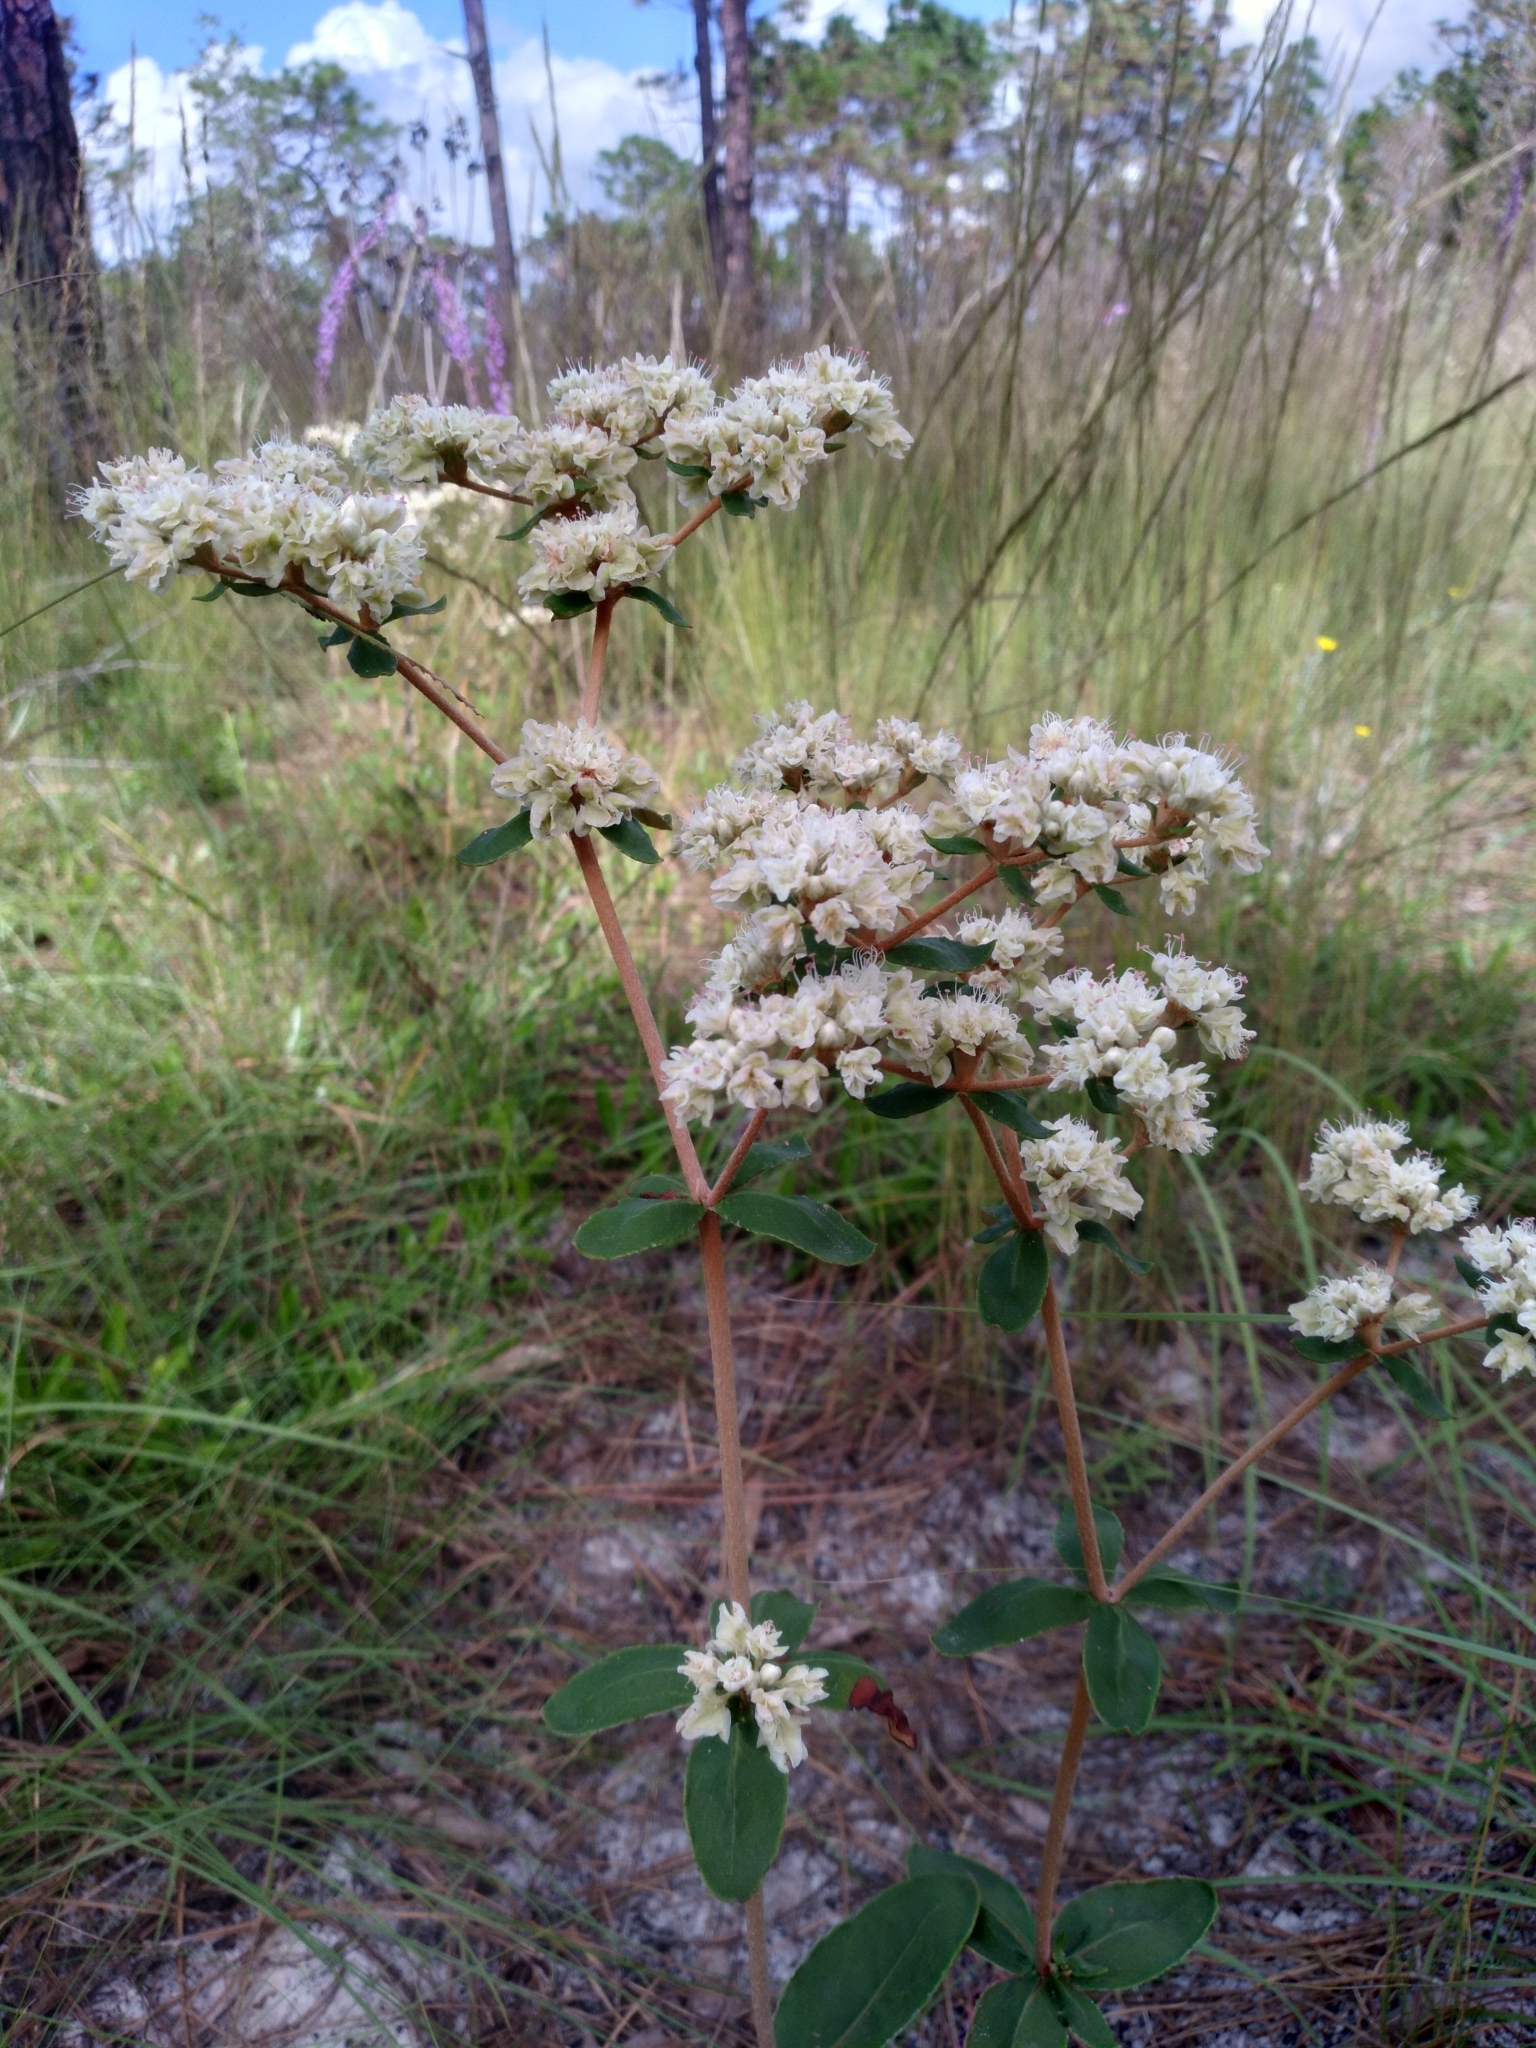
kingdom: Plantae
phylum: Tracheophyta
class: Magnoliopsida
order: Caryophyllales
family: Polygonaceae
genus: Eriogonum
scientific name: Eriogonum tomentosum
